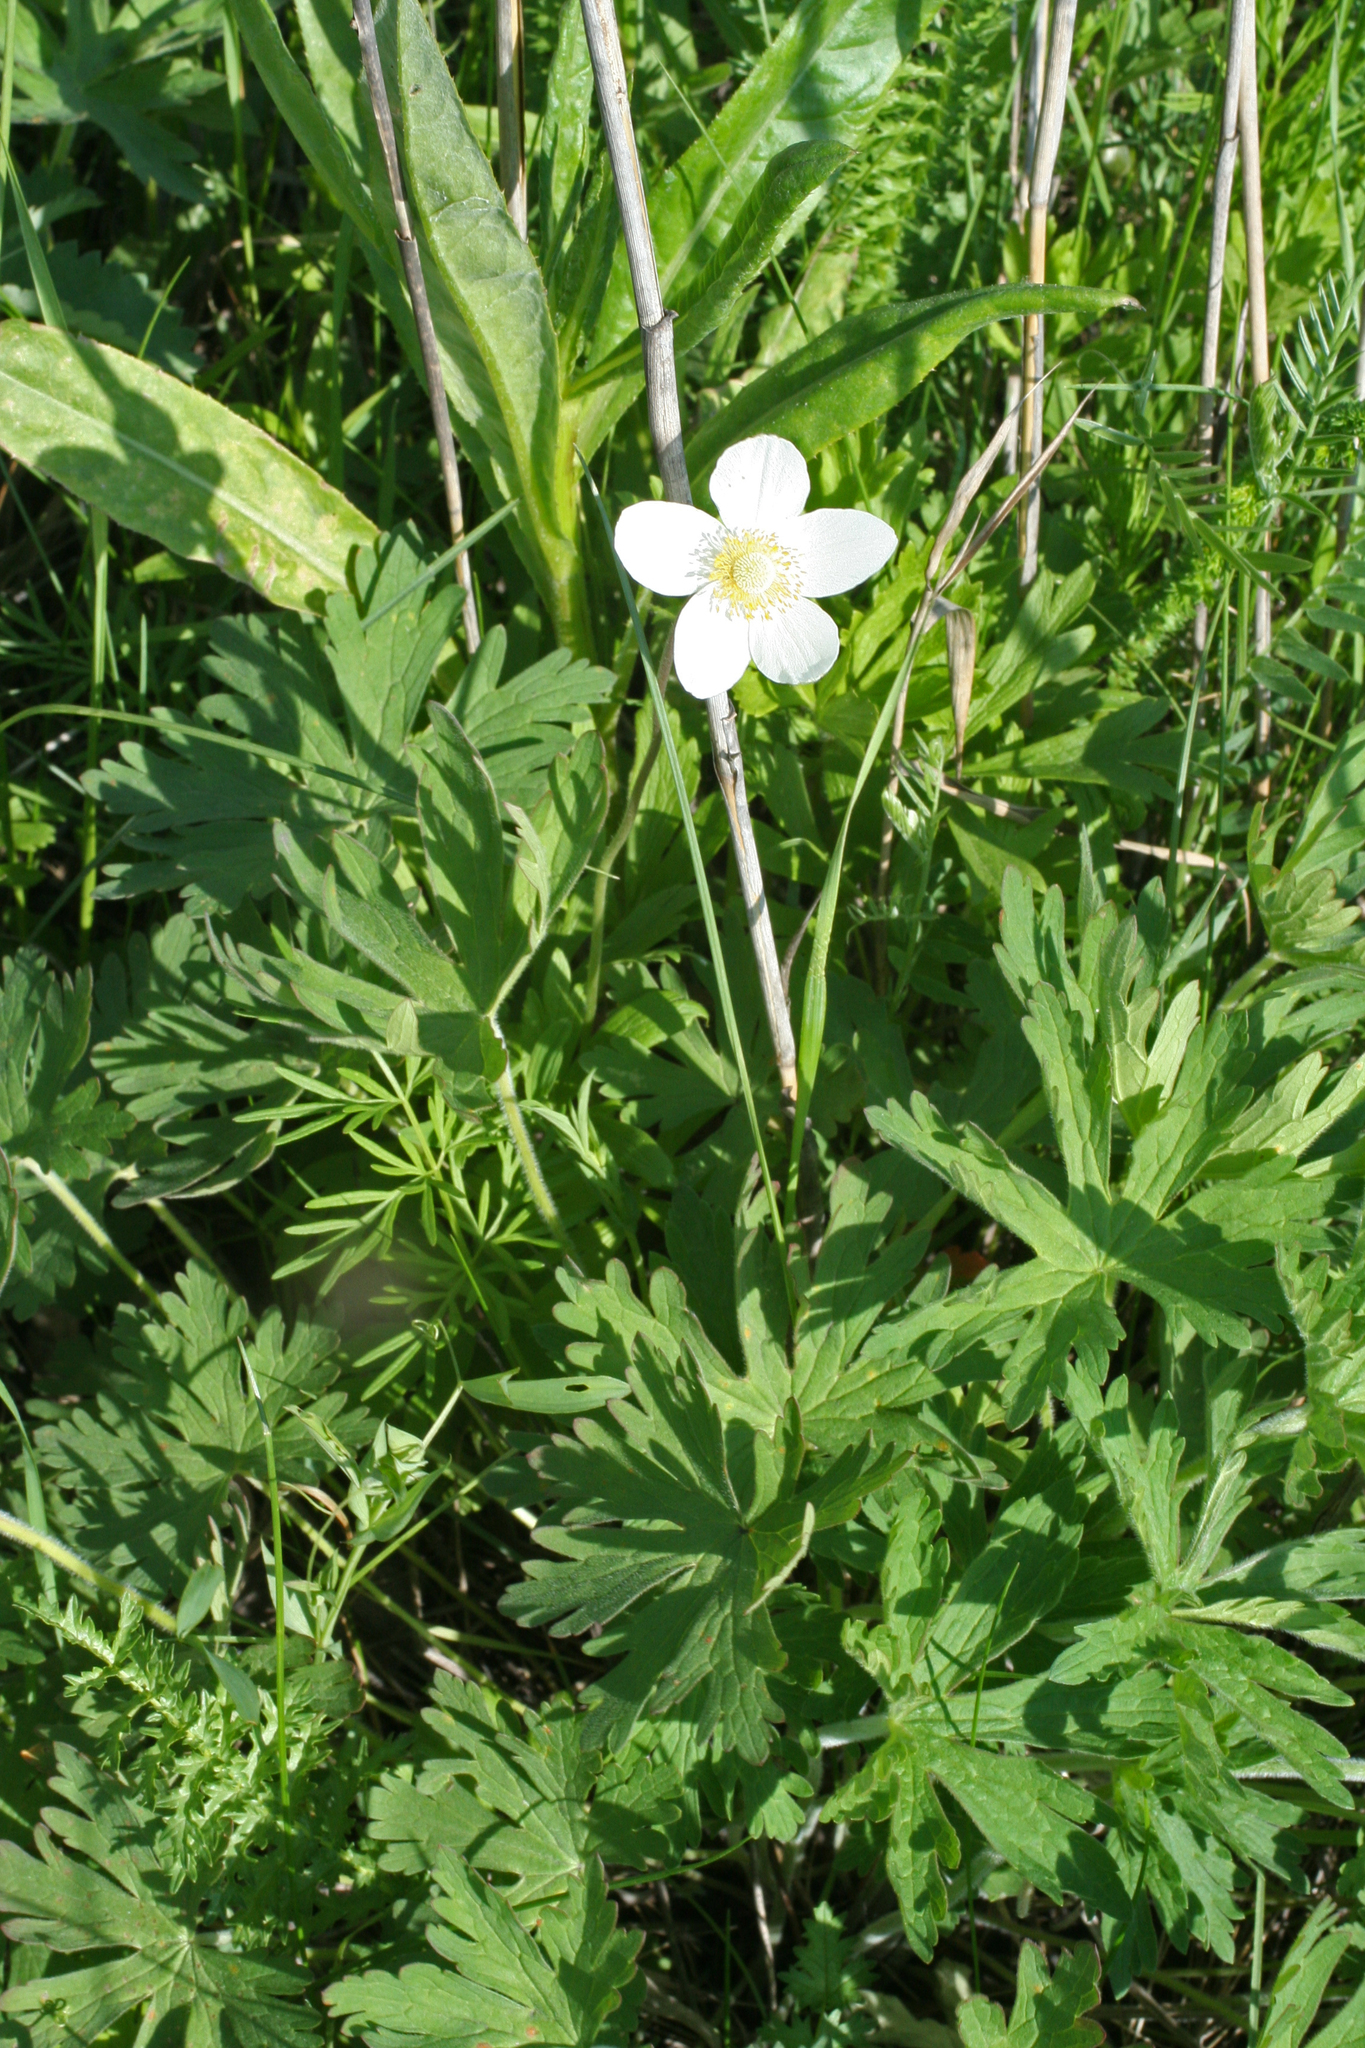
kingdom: Plantae
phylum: Tracheophyta
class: Magnoliopsida
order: Ranunculales
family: Ranunculaceae
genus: Anemone
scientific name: Anemone sylvestris
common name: Snowdrop anemone
